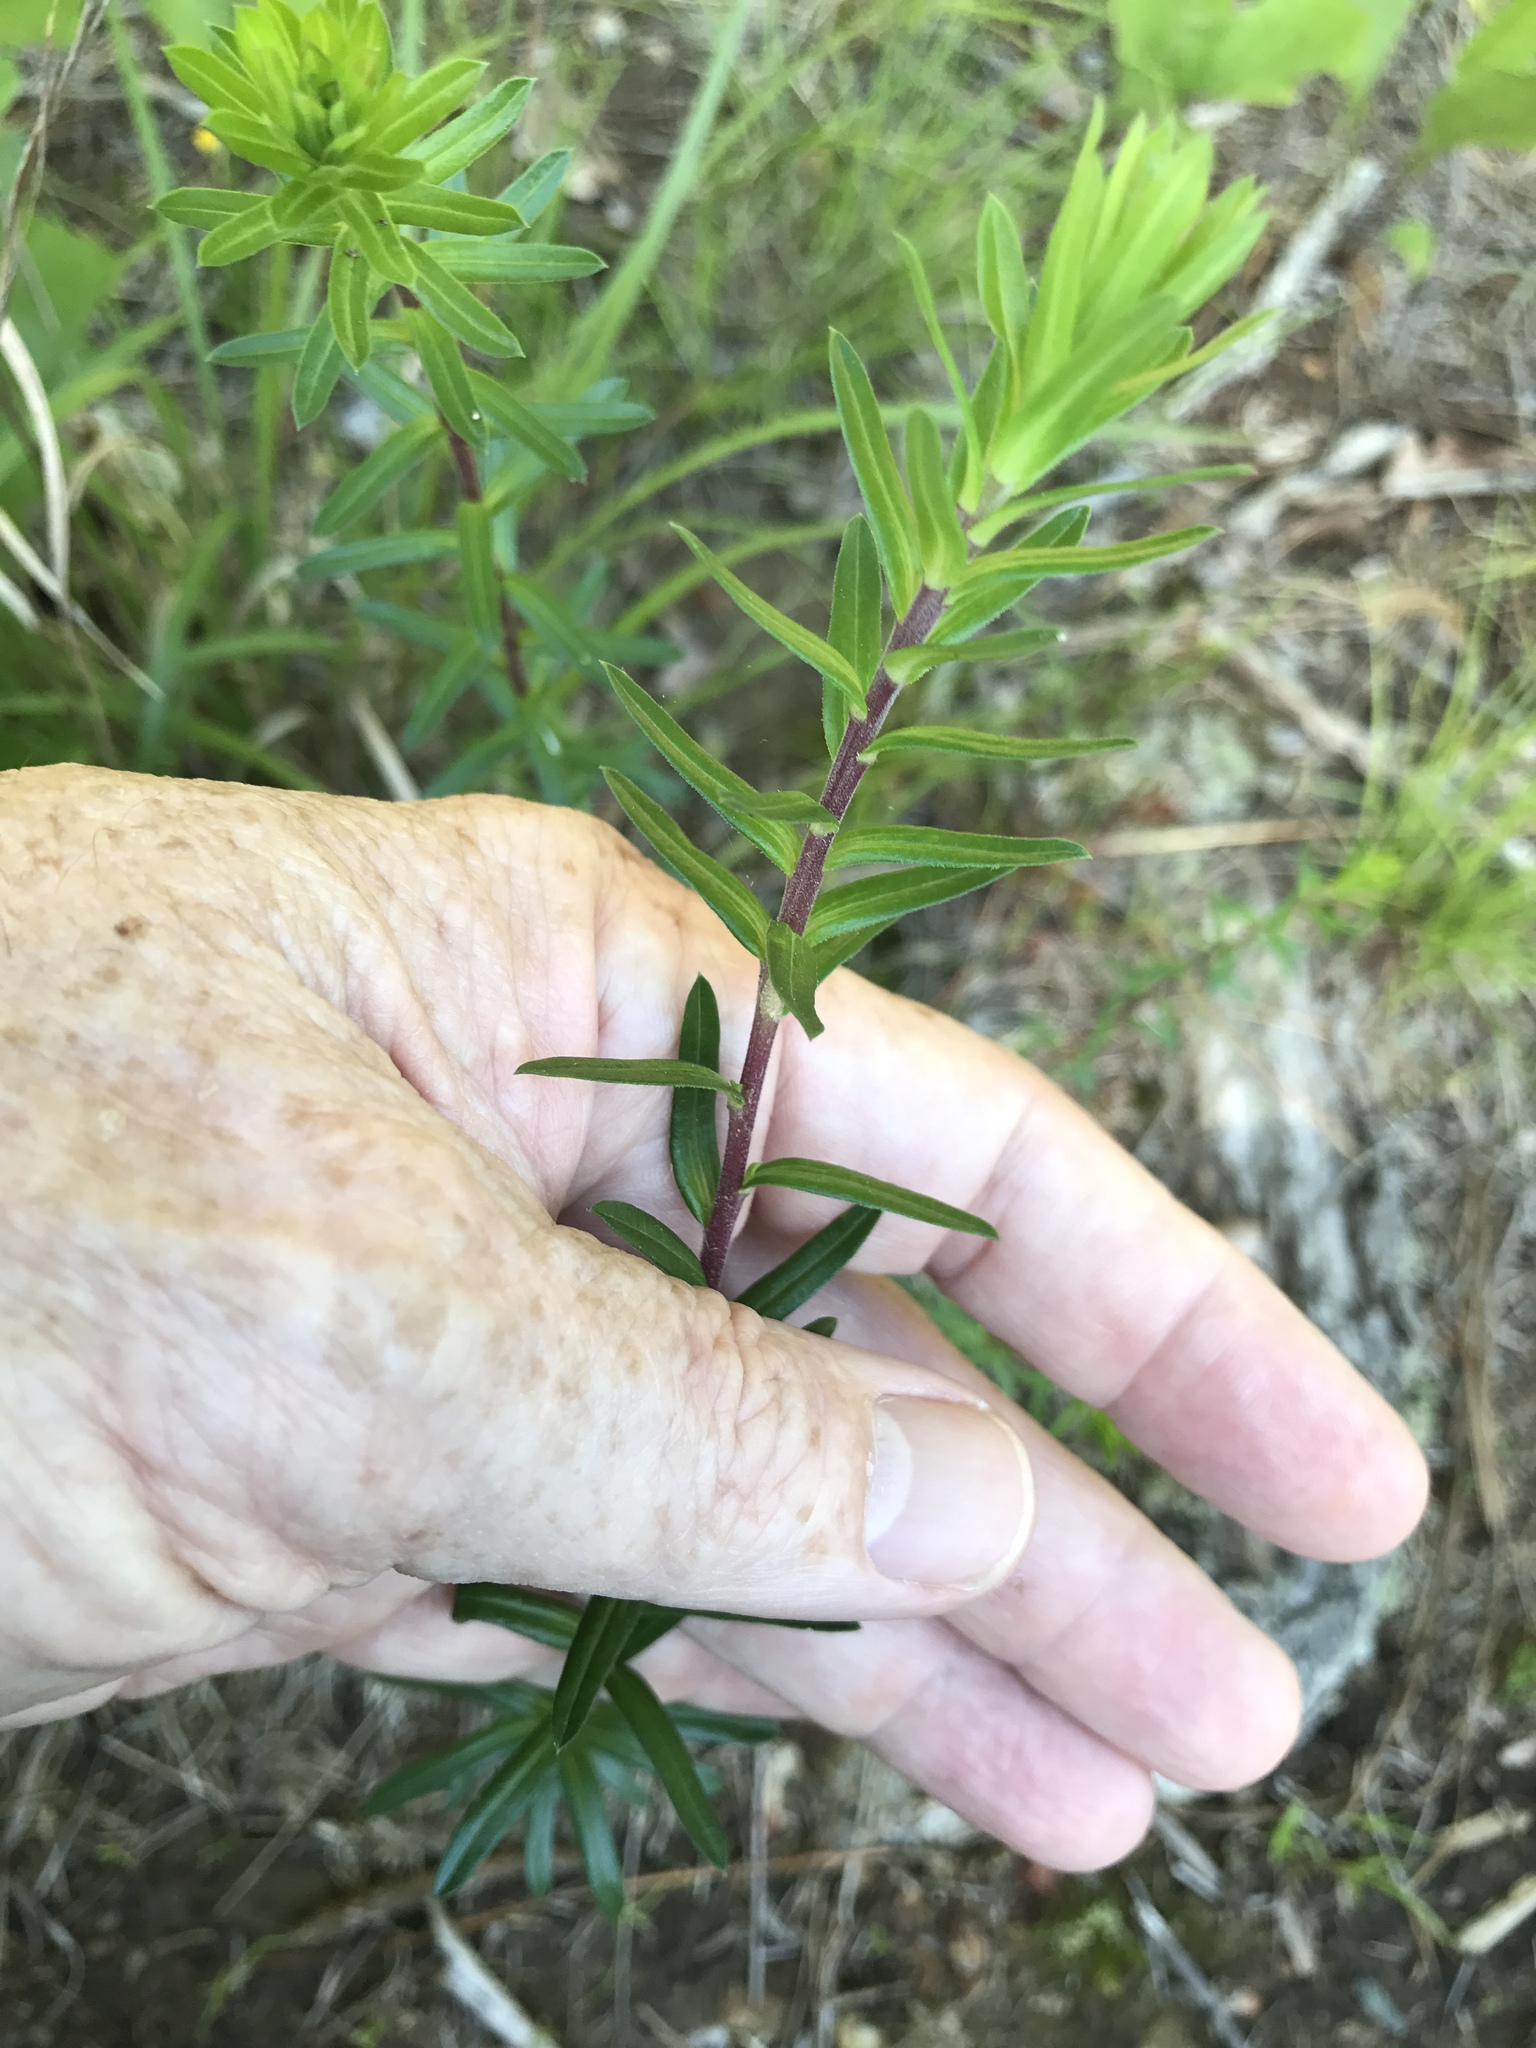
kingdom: Plantae
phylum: Tracheophyta
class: Magnoliopsida
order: Asterales
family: Asteraceae
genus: Ionactis
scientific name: Ionactis linariifolia
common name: Flax-leaf aster
